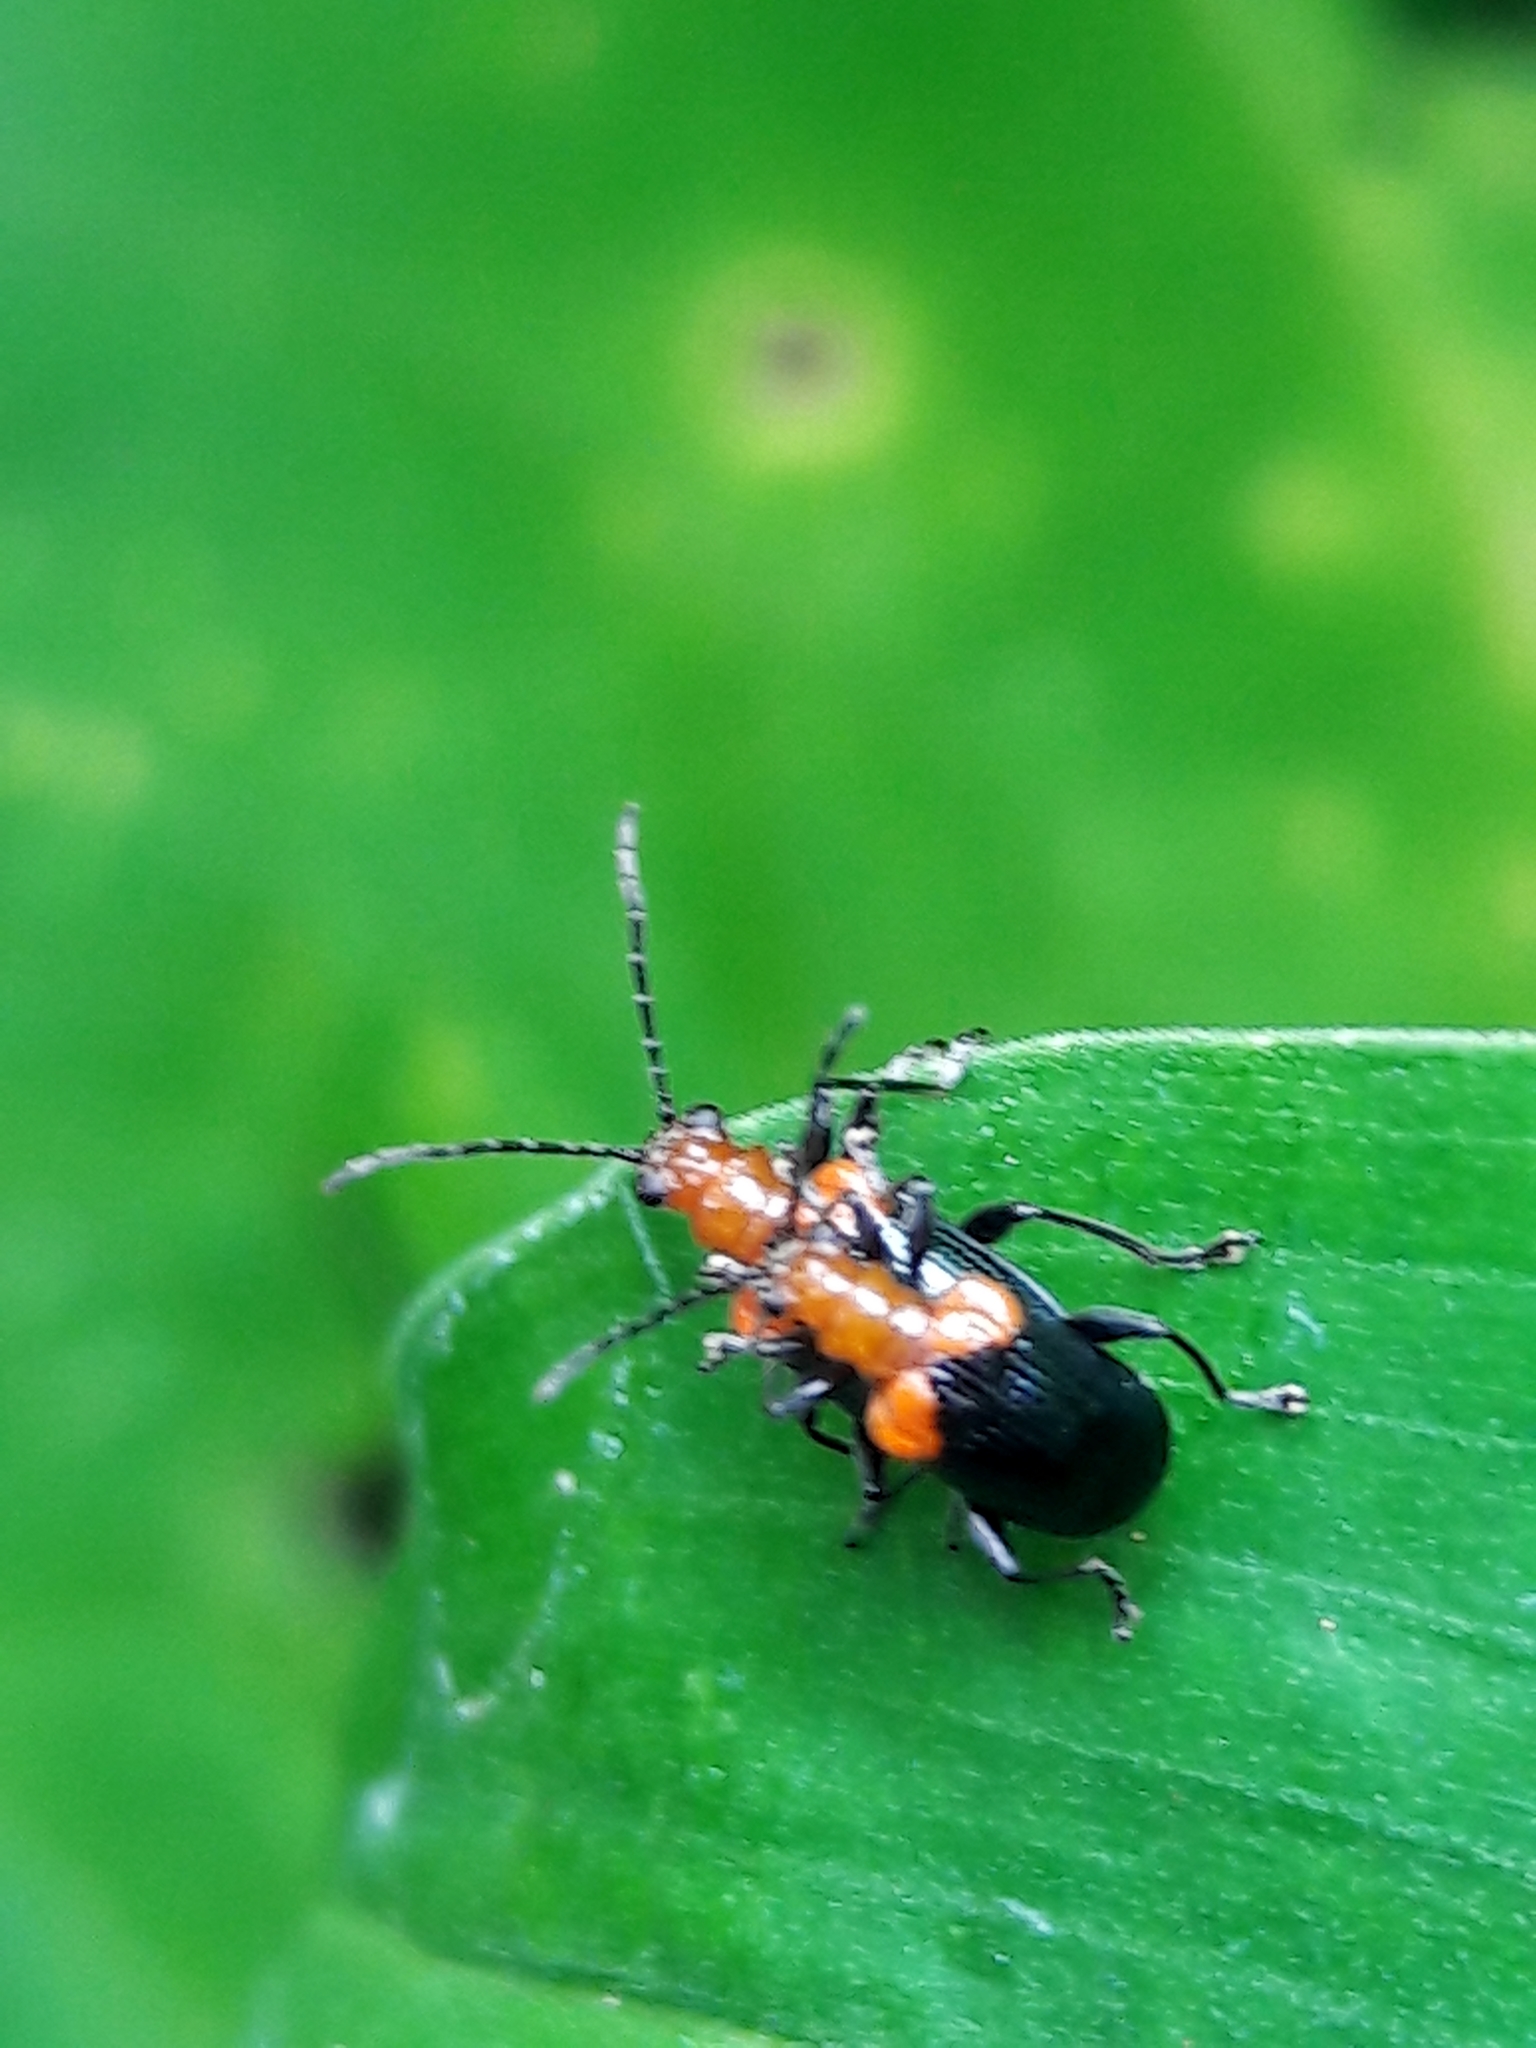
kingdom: Animalia
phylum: Arthropoda
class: Insecta
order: Coleoptera
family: Chrysomelidae
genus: Neolema
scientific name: Neolema
